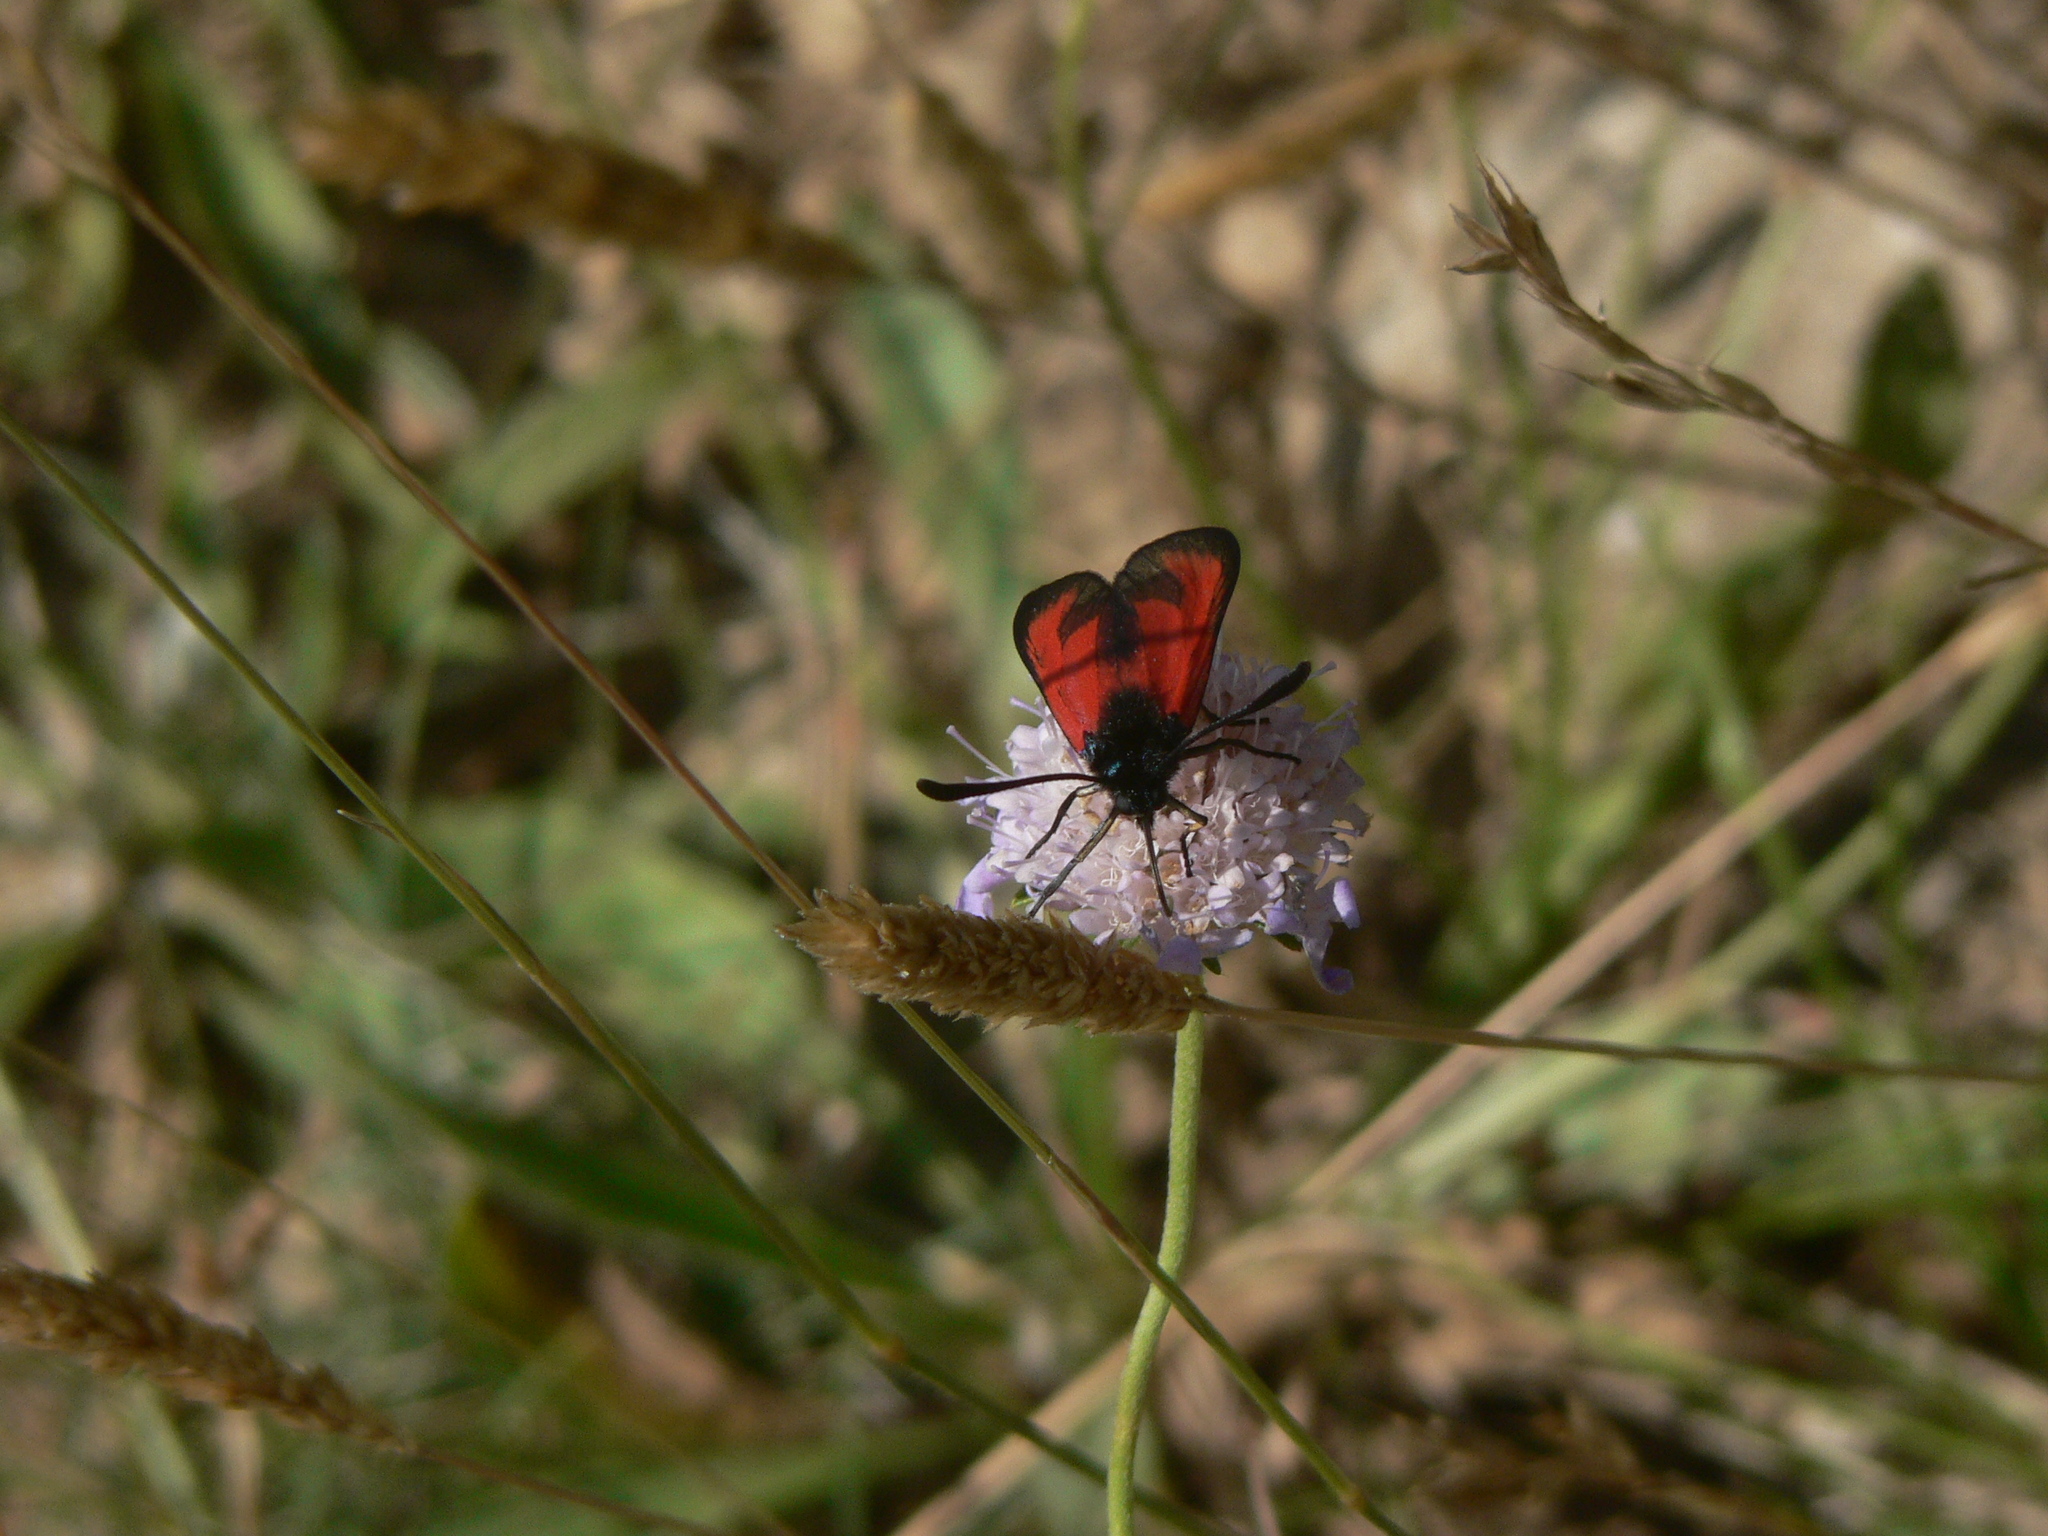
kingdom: Animalia
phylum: Arthropoda
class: Insecta
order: Lepidoptera
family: Zygaenidae
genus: Zygaena
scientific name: Zygaena erythrus
